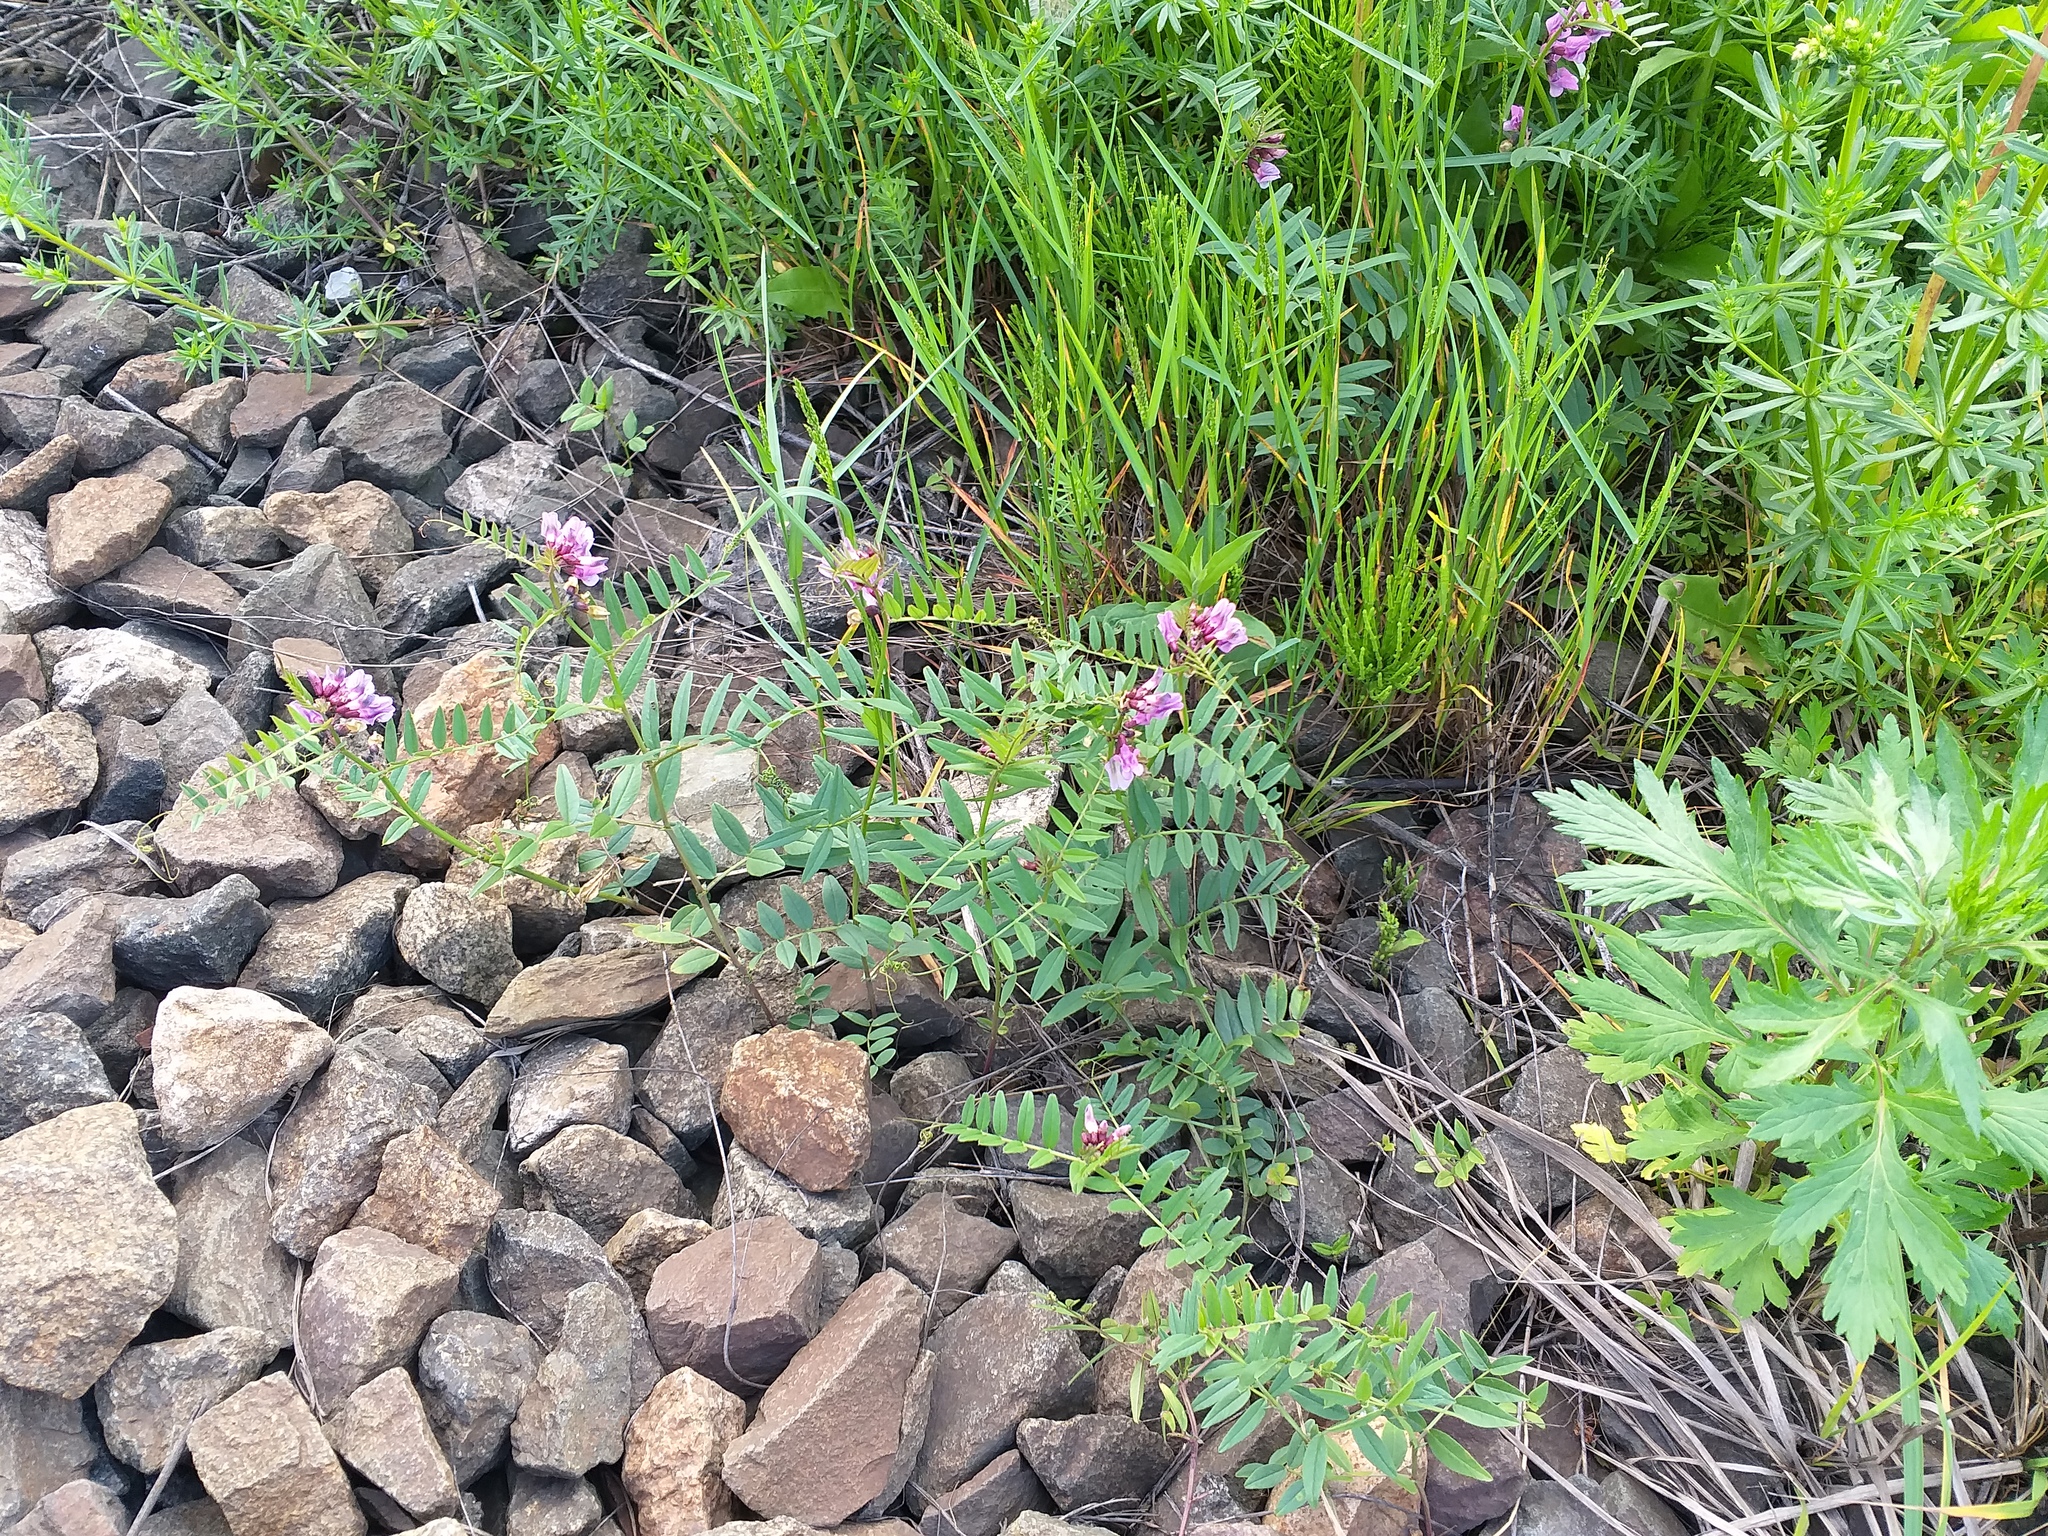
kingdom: Plantae
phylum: Tracheophyta
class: Magnoliopsida
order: Fabales
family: Fabaceae
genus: Vicia
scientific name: Vicia sepium
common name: Bush vetch
